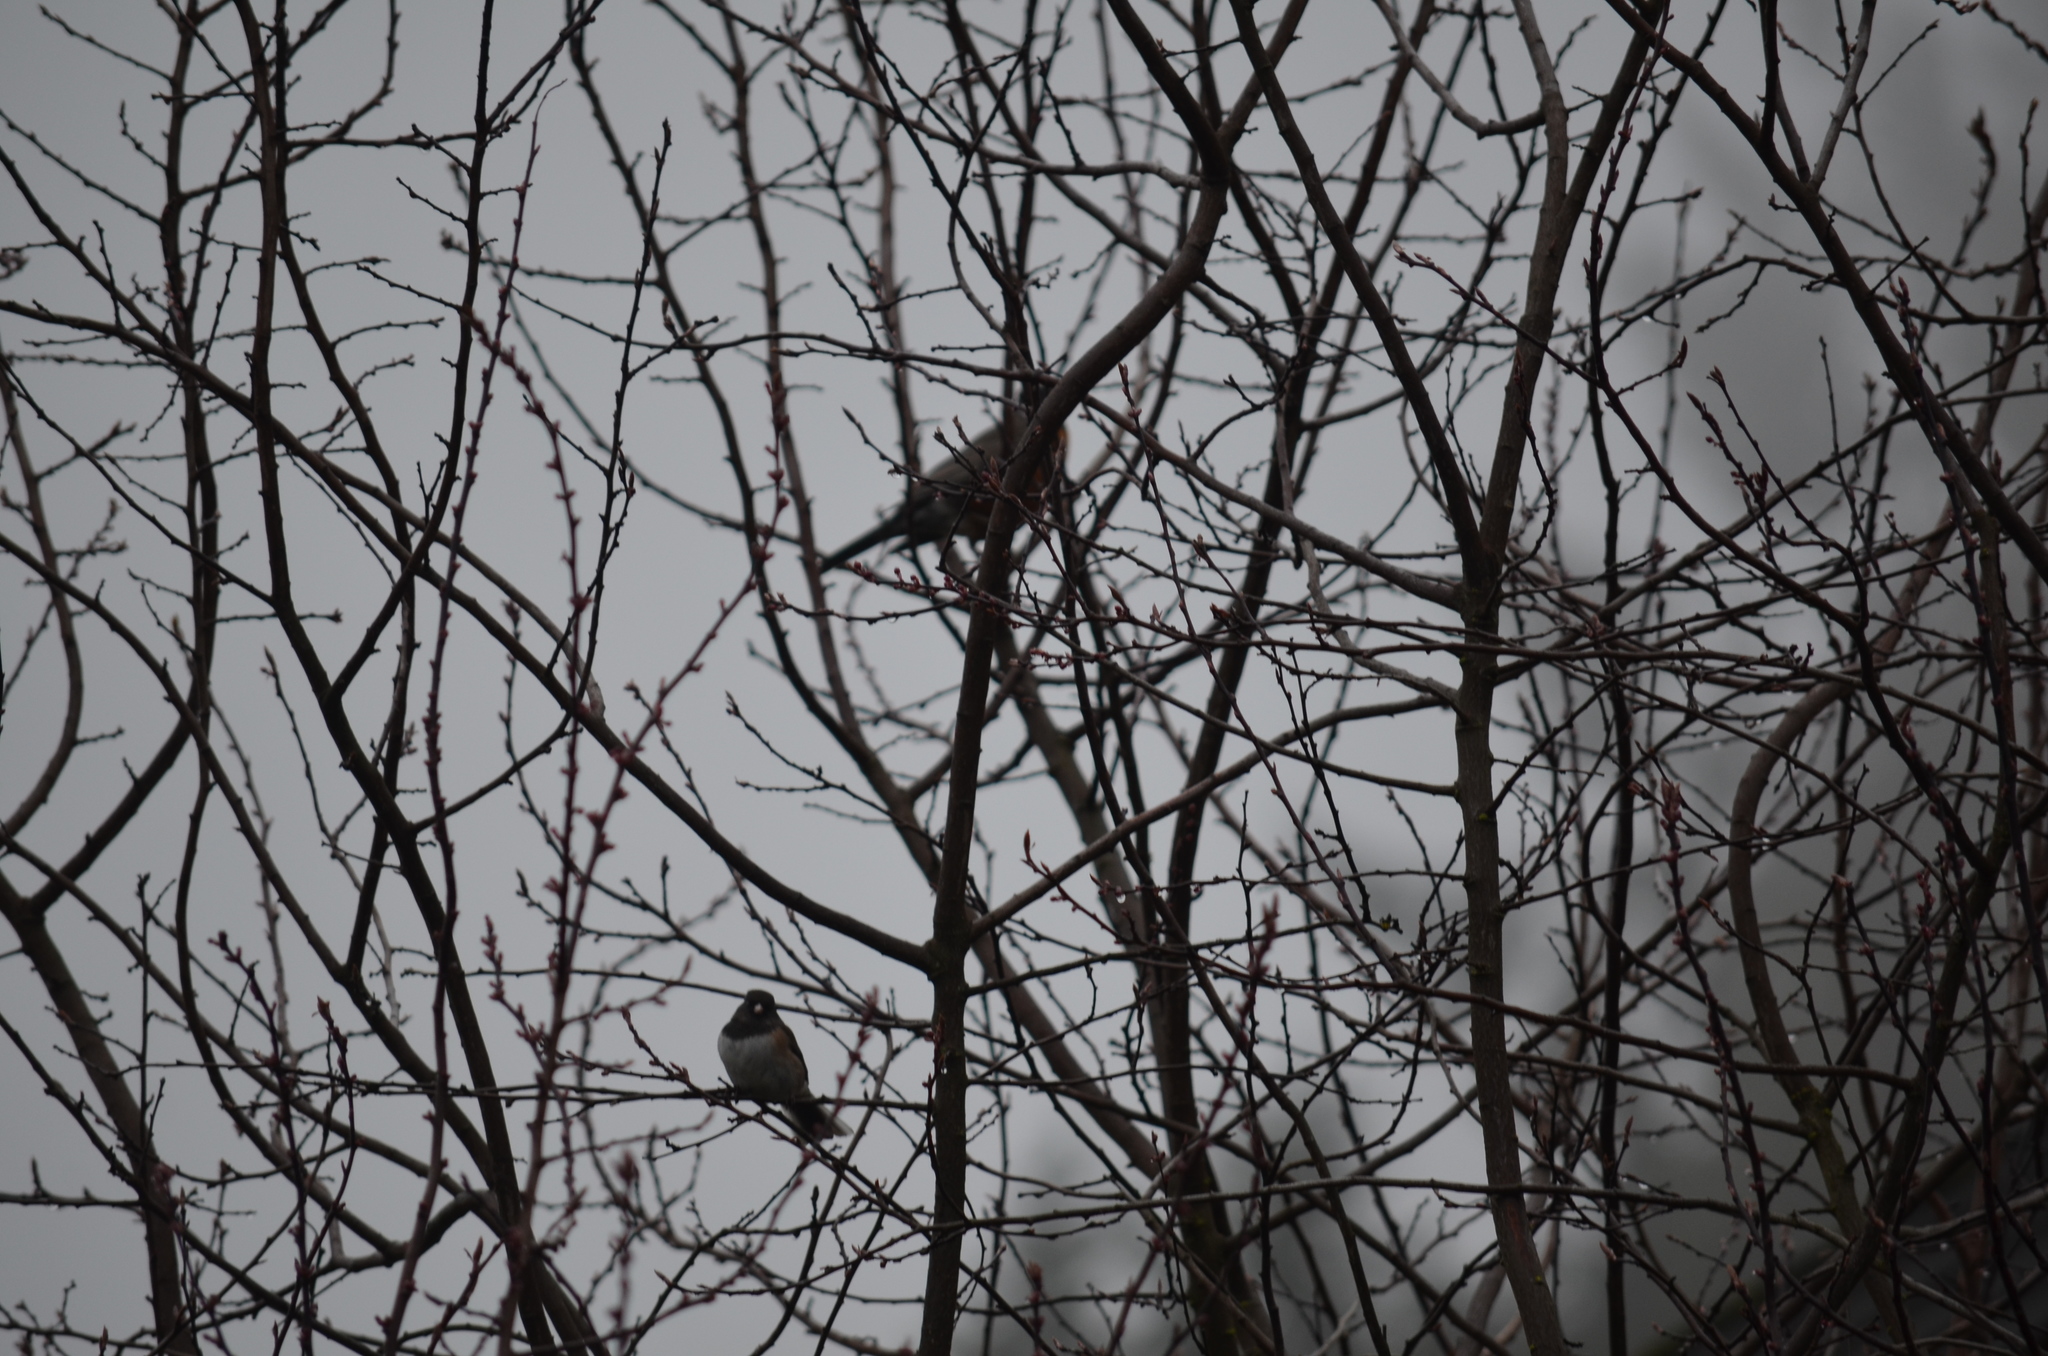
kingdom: Animalia
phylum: Chordata
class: Aves
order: Passeriformes
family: Passerellidae
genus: Junco
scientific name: Junco hyemalis
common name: Dark-eyed junco
